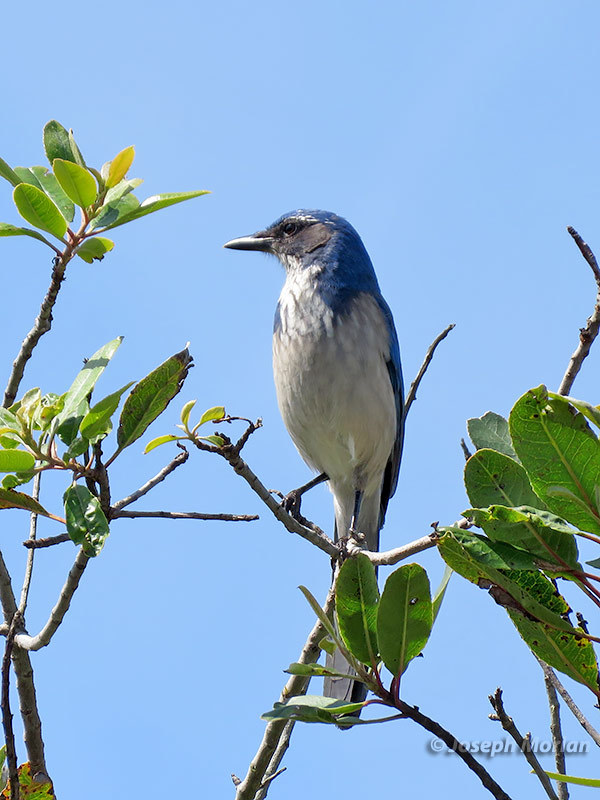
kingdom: Animalia
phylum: Chordata
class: Aves
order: Passeriformes
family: Corvidae
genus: Aphelocoma
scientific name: Aphelocoma californica
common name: California scrub-jay
